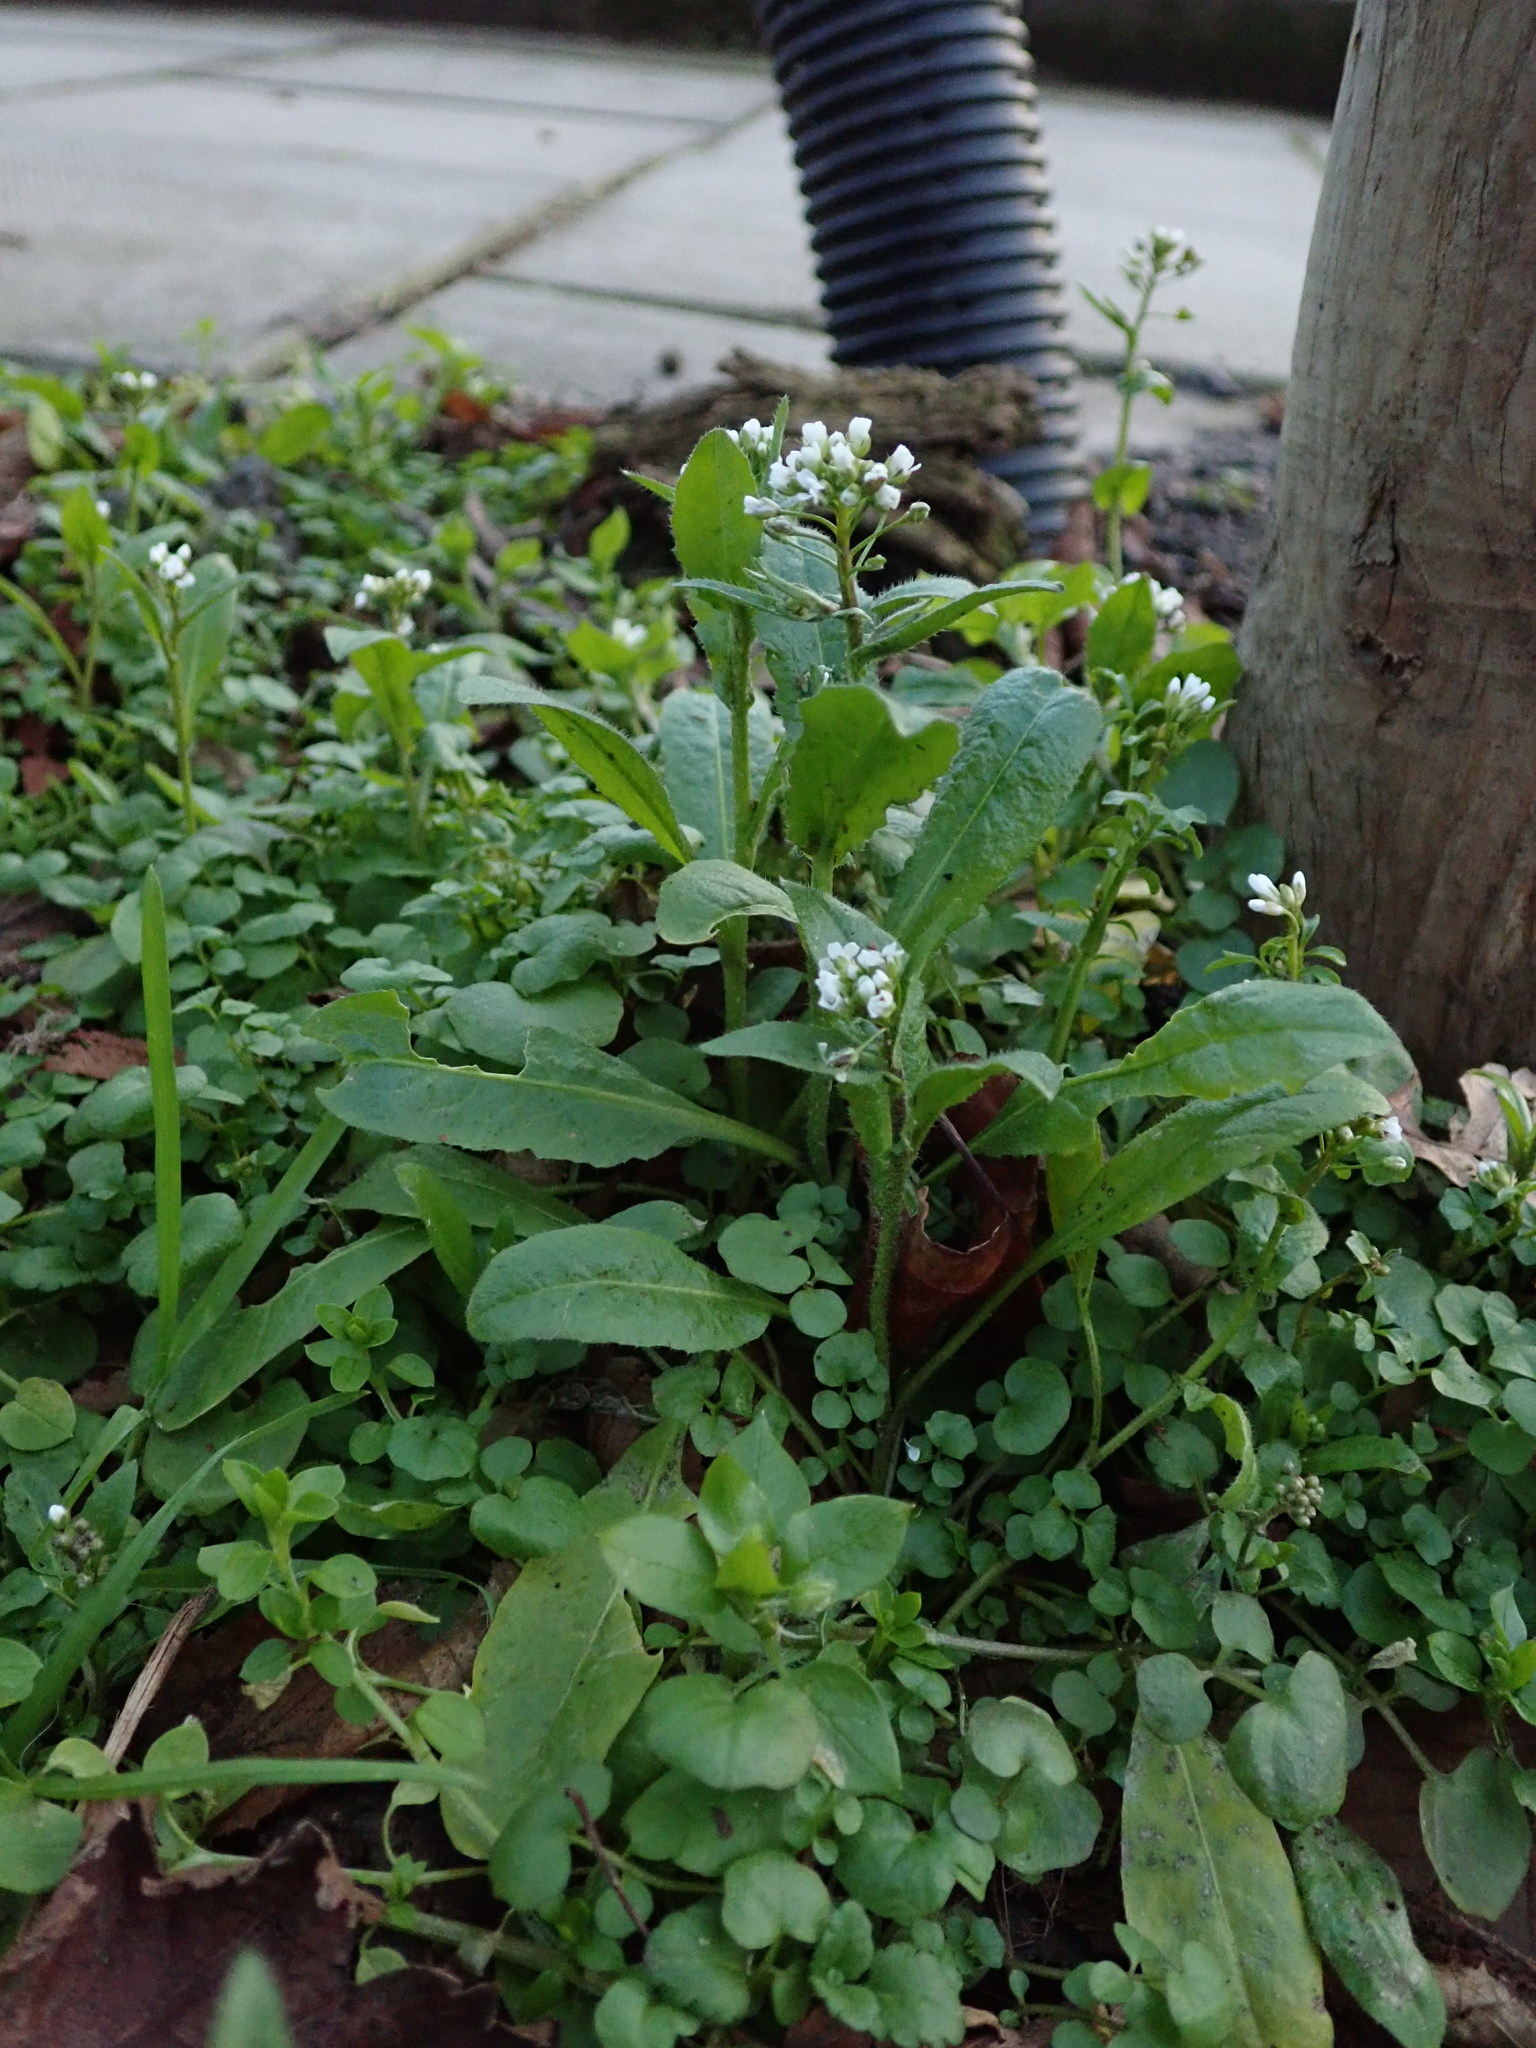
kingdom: Plantae
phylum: Tracheophyta
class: Magnoliopsida
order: Brassicales
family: Brassicaceae
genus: Capsella
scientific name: Capsella bursa-pastoris
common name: Shepherd's purse
